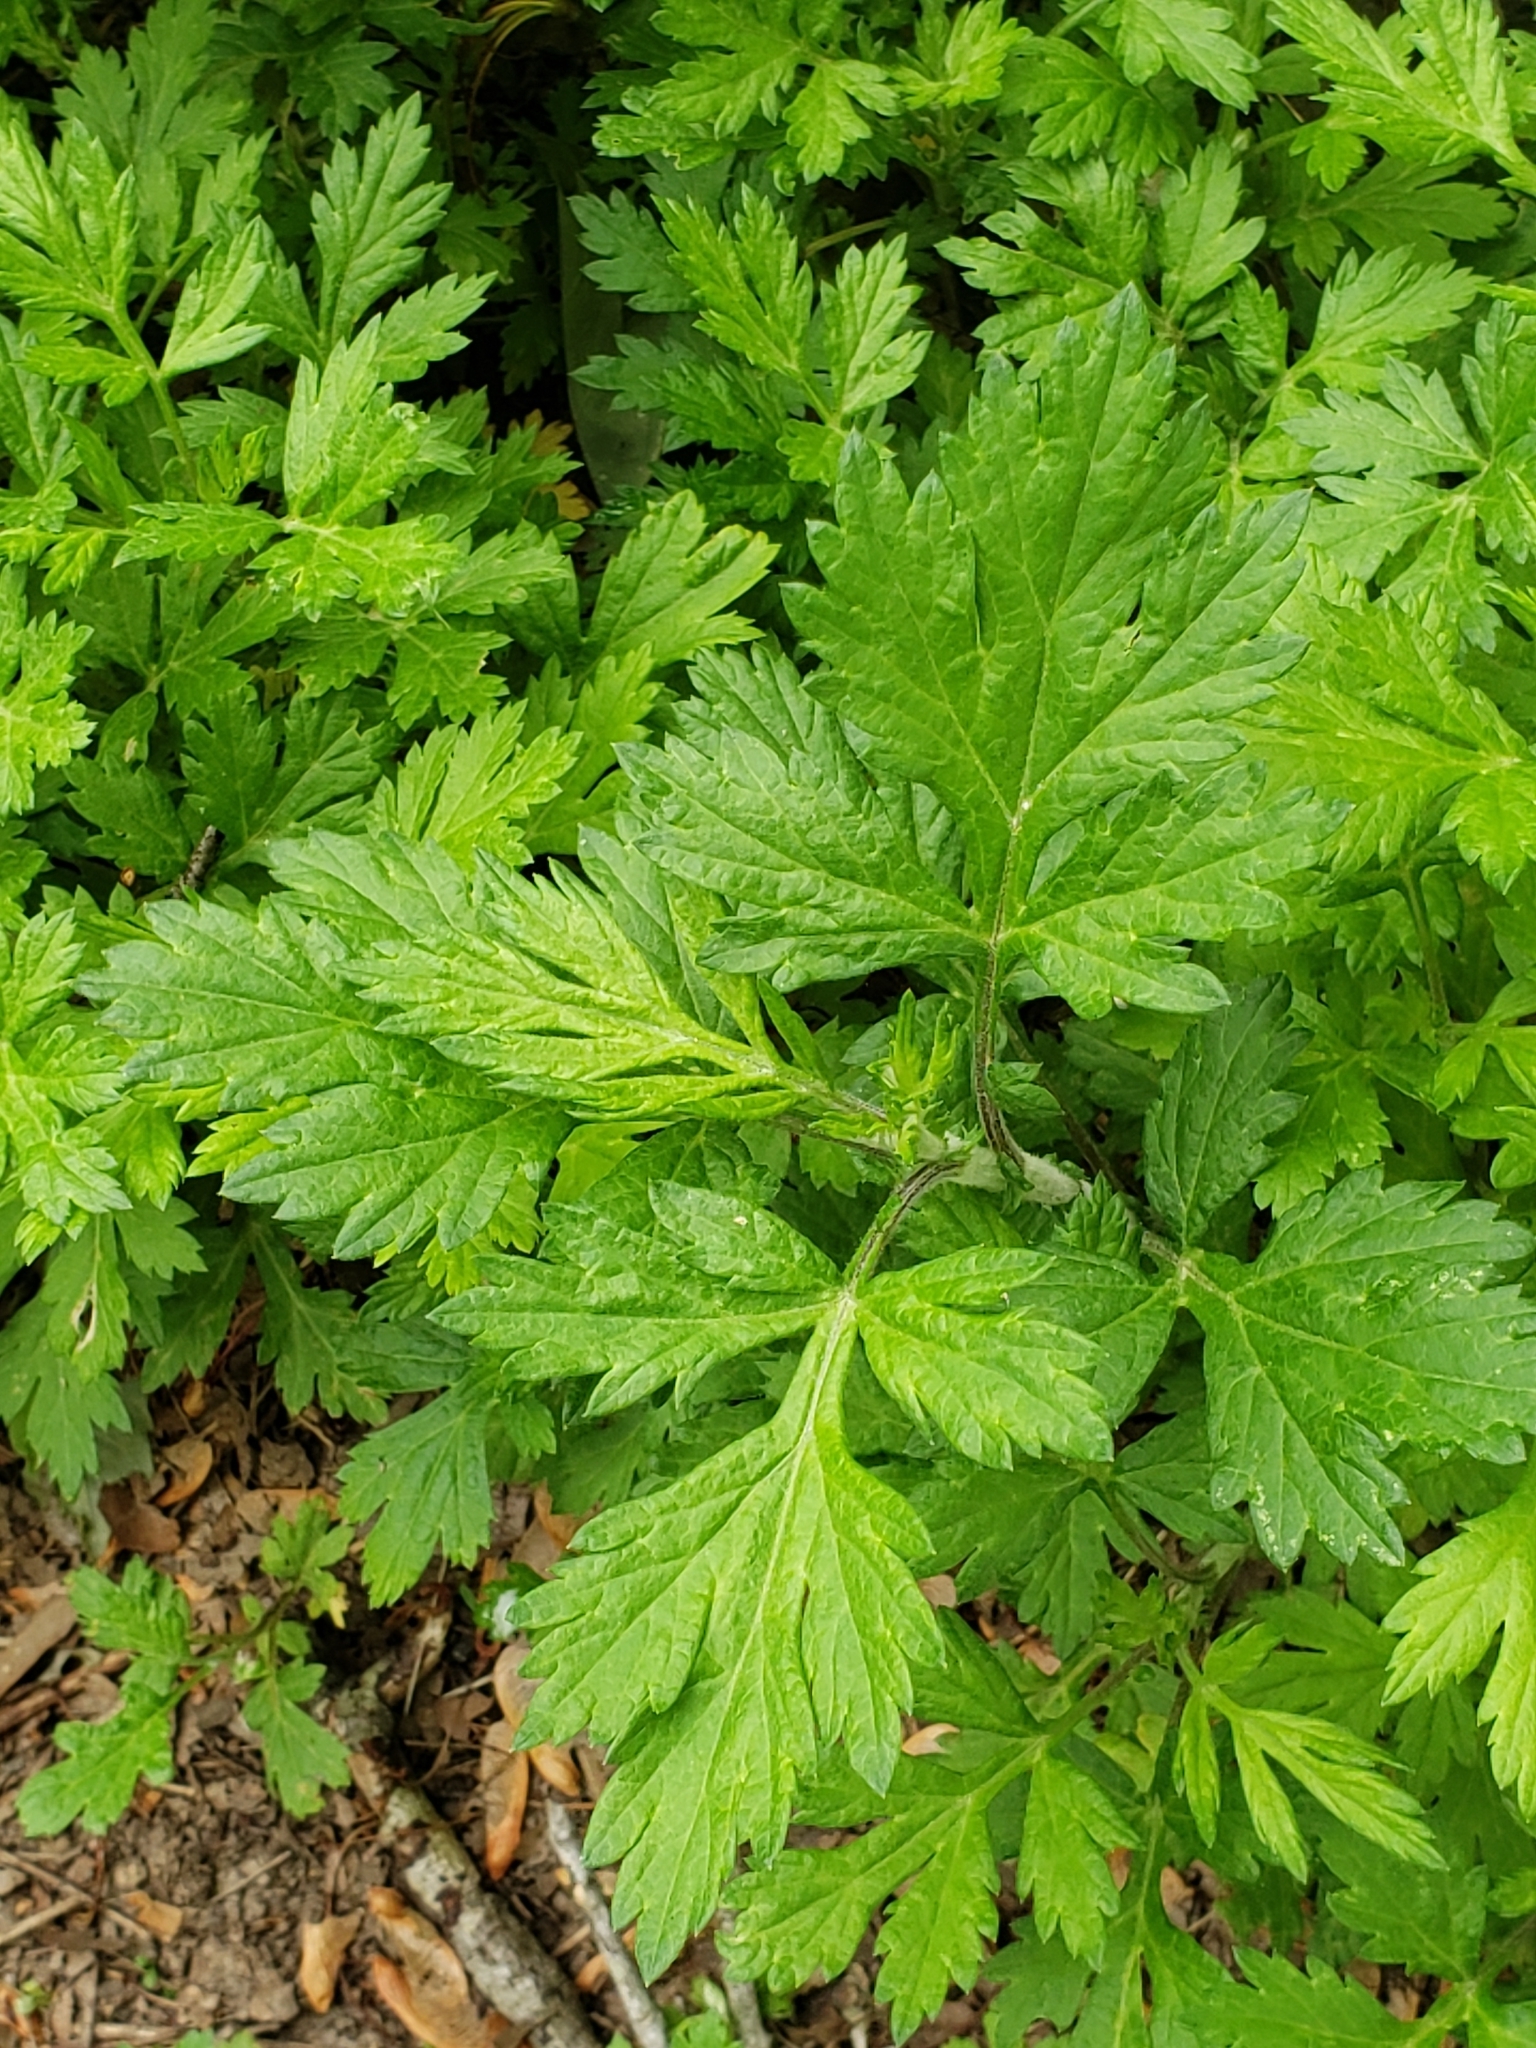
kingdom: Plantae
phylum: Tracheophyta
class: Magnoliopsida
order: Asterales
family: Asteraceae
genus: Artemisia
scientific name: Artemisia vulgaris
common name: Mugwort
